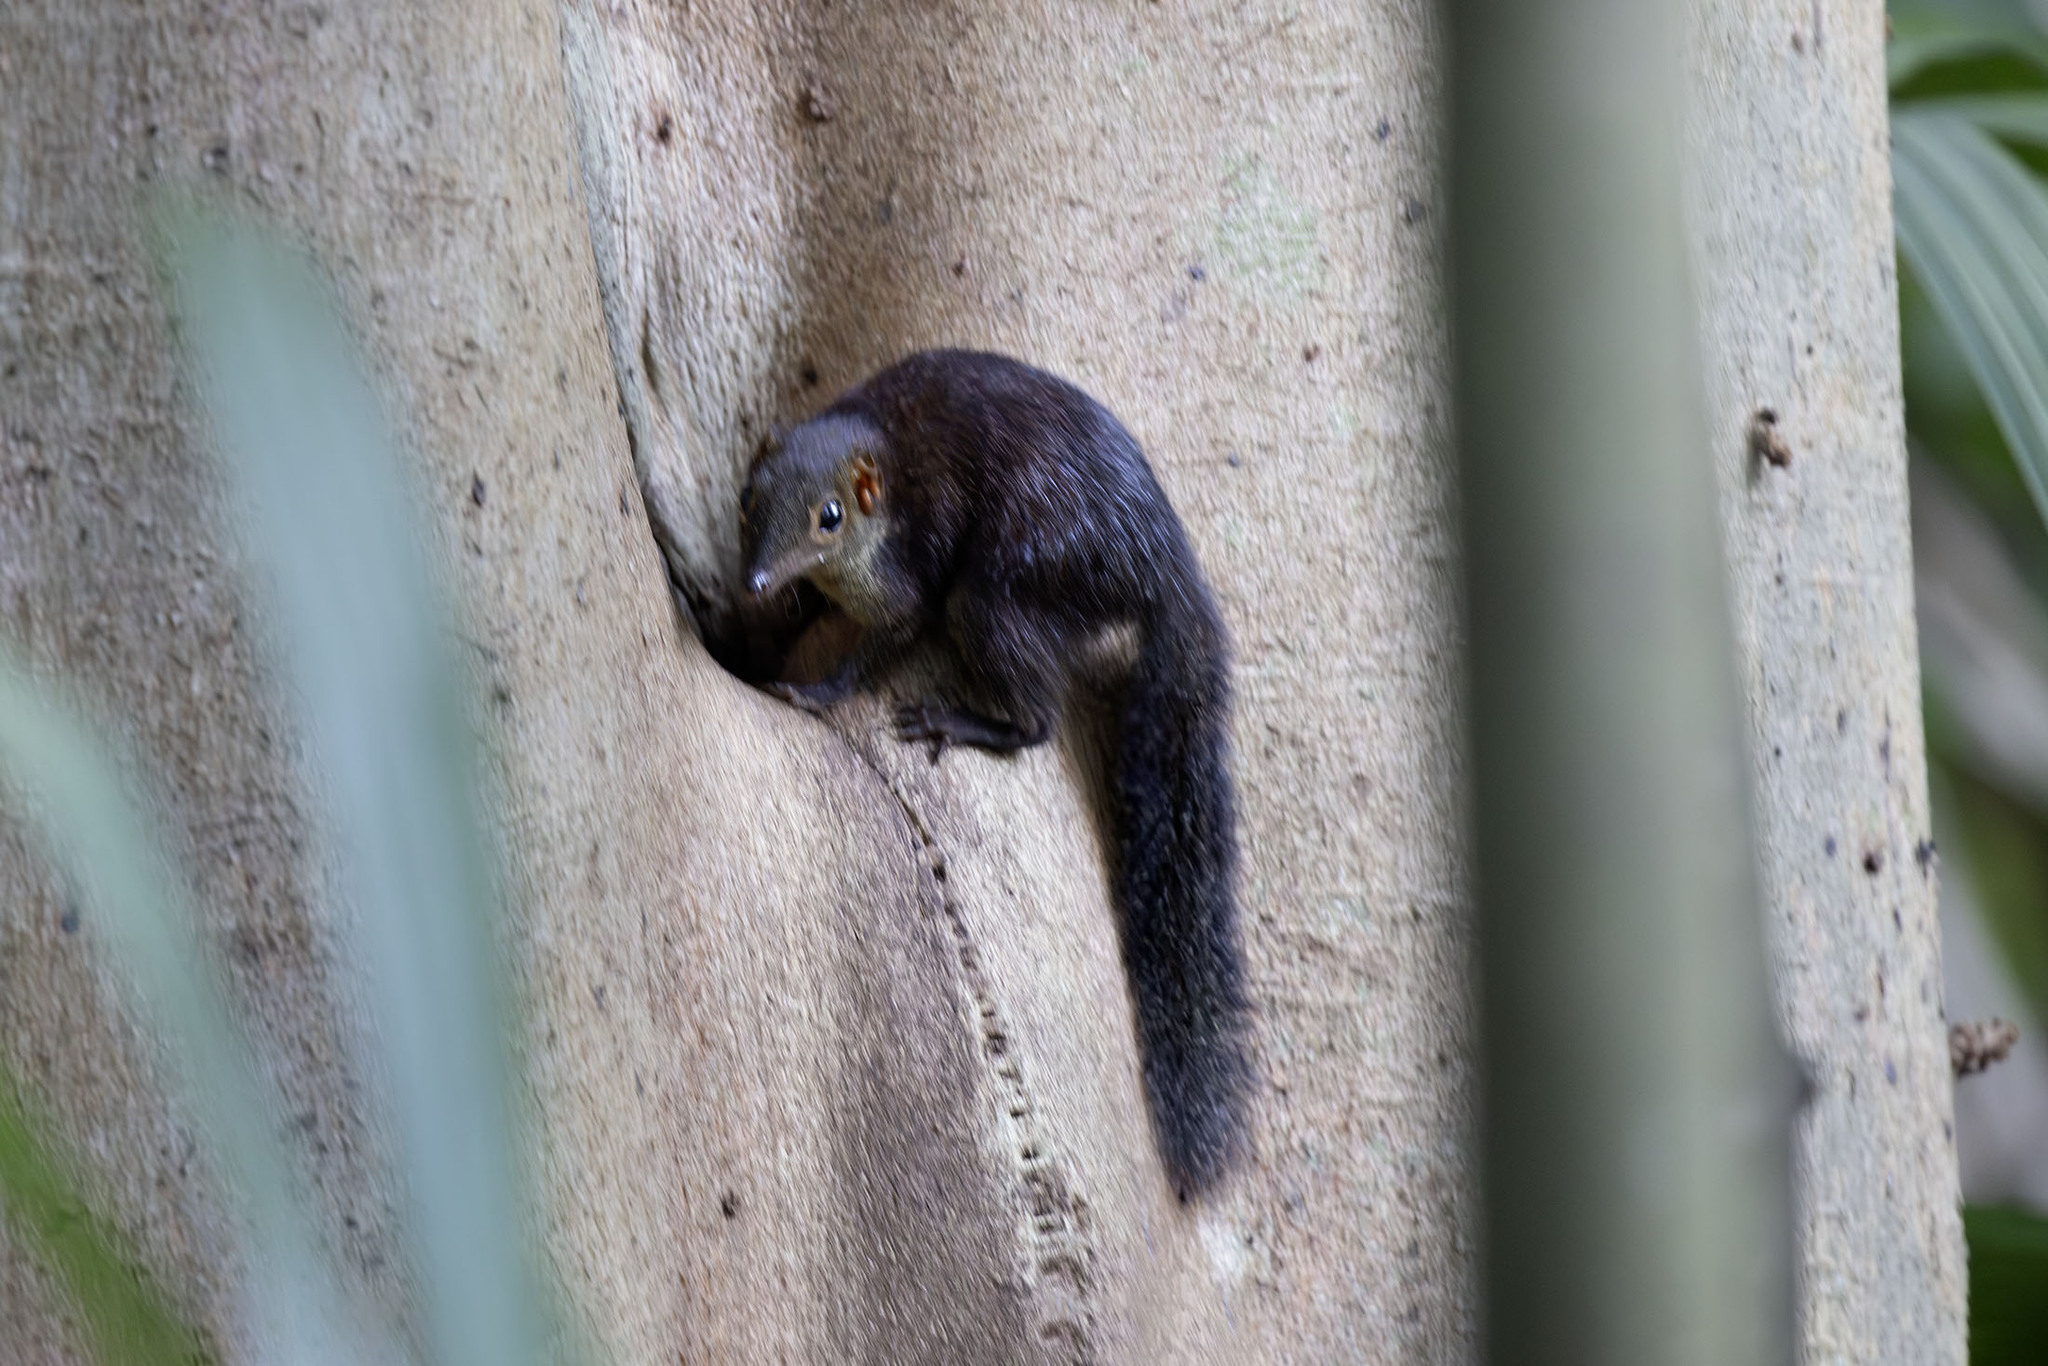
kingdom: Animalia
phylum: Chordata
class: Mammalia
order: Scandentia
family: Tupaiidae
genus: Tupaia
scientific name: Tupaia glis
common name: Common treeshrew
